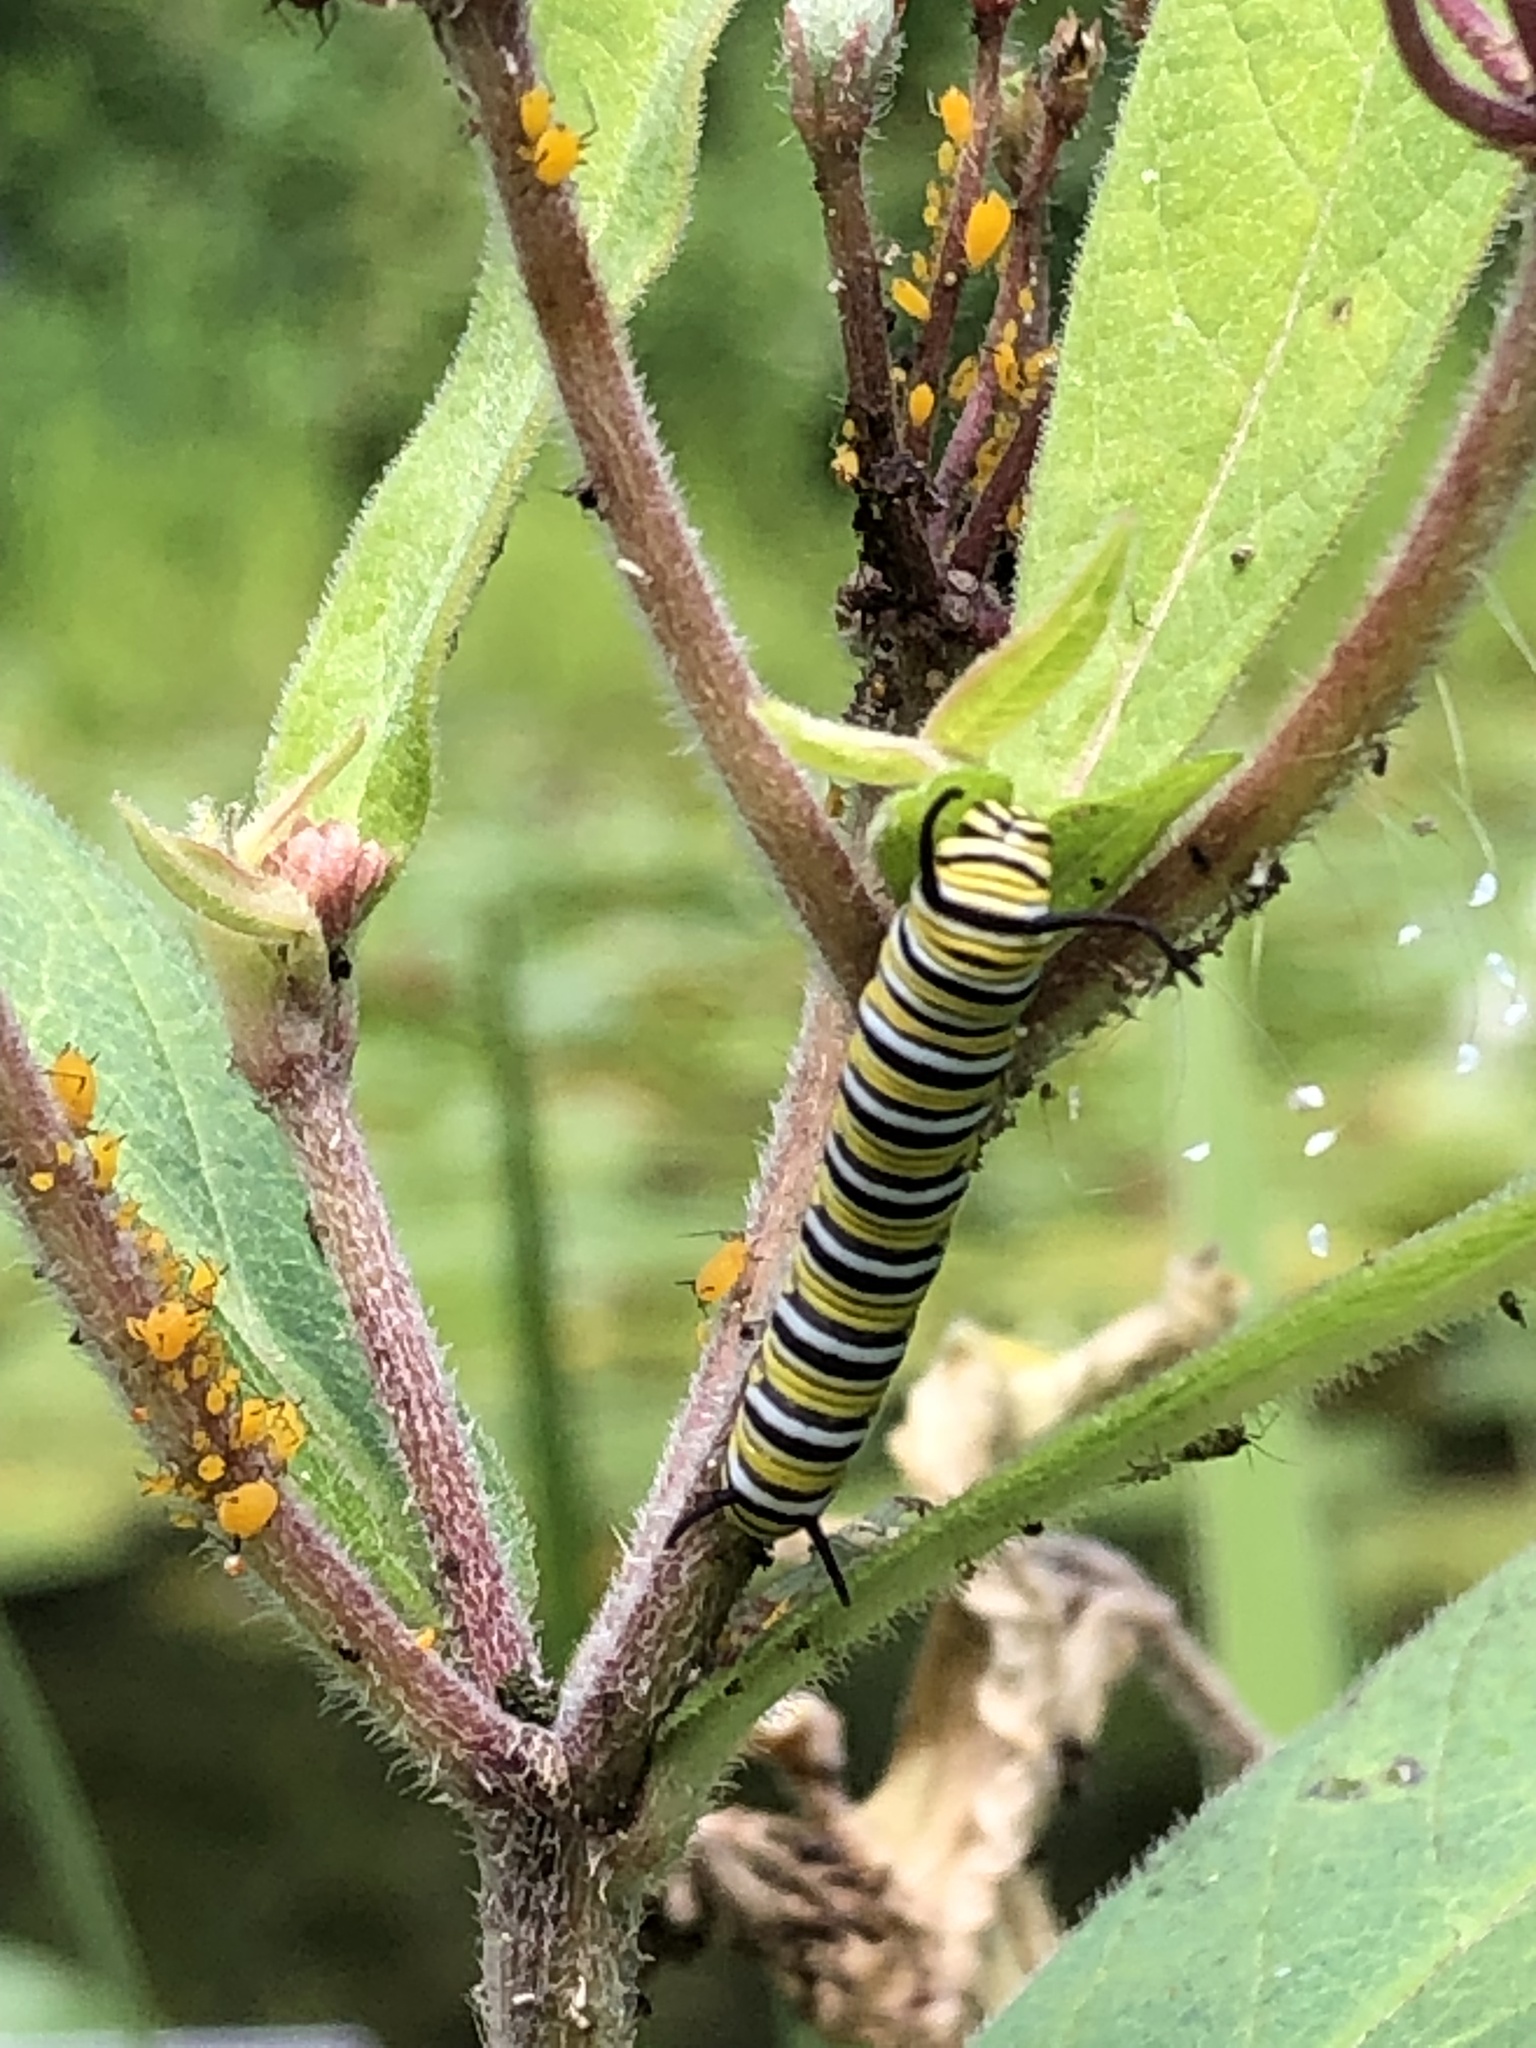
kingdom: Animalia
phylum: Arthropoda
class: Insecta
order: Lepidoptera
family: Nymphalidae
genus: Danaus
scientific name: Danaus plexippus
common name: Monarch
